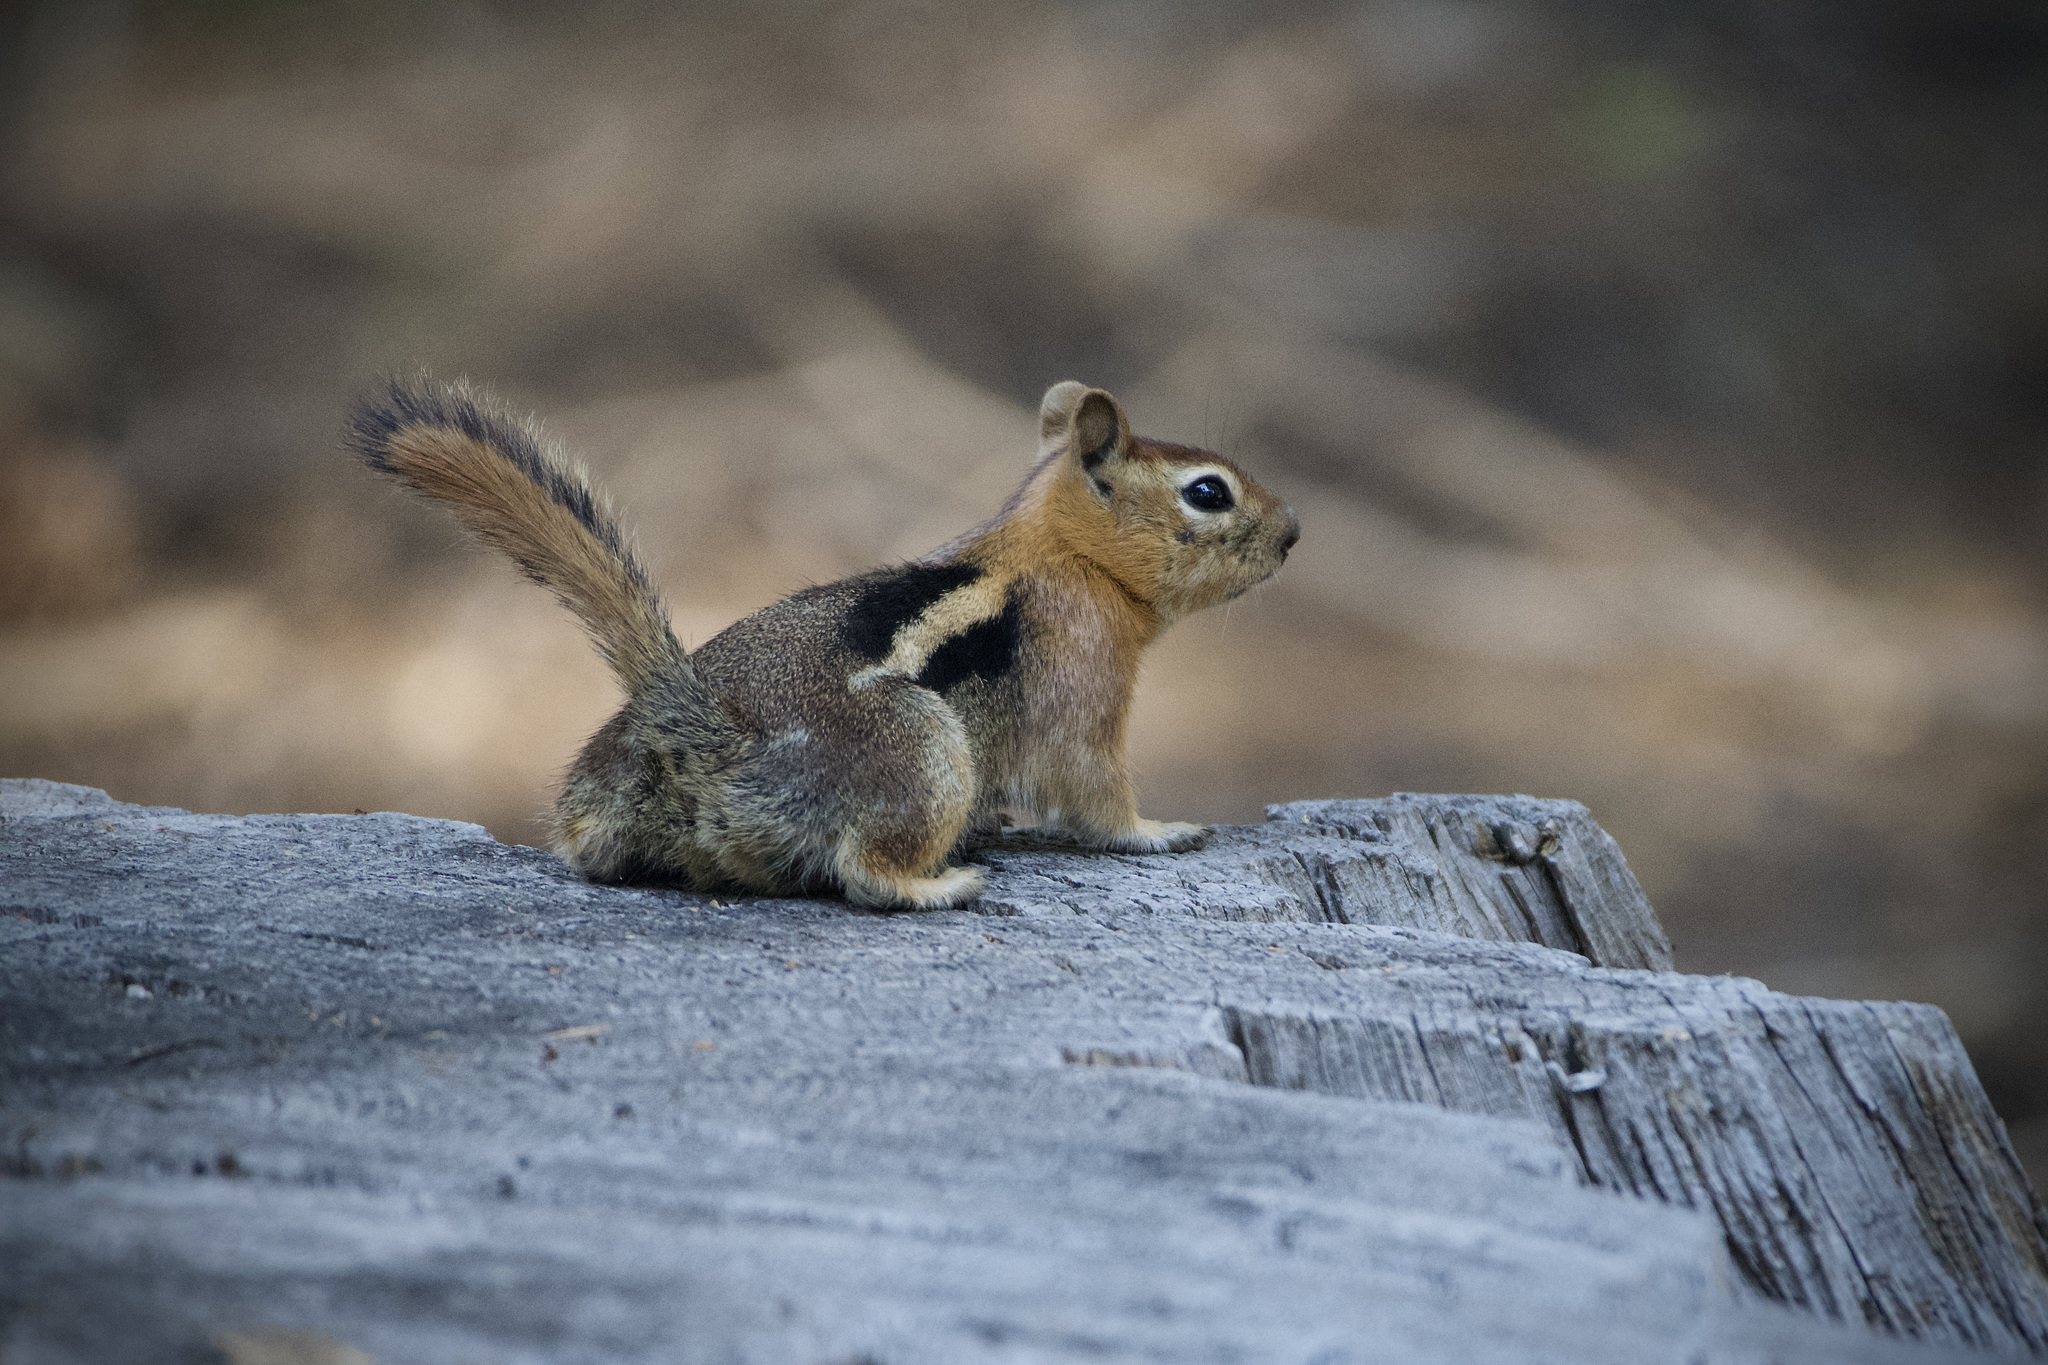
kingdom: Animalia
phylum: Chordata
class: Mammalia
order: Rodentia
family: Sciuridae
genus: Callospermophilus
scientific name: Callospermophilus lateralis
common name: Golden-mantled ground squirrel
